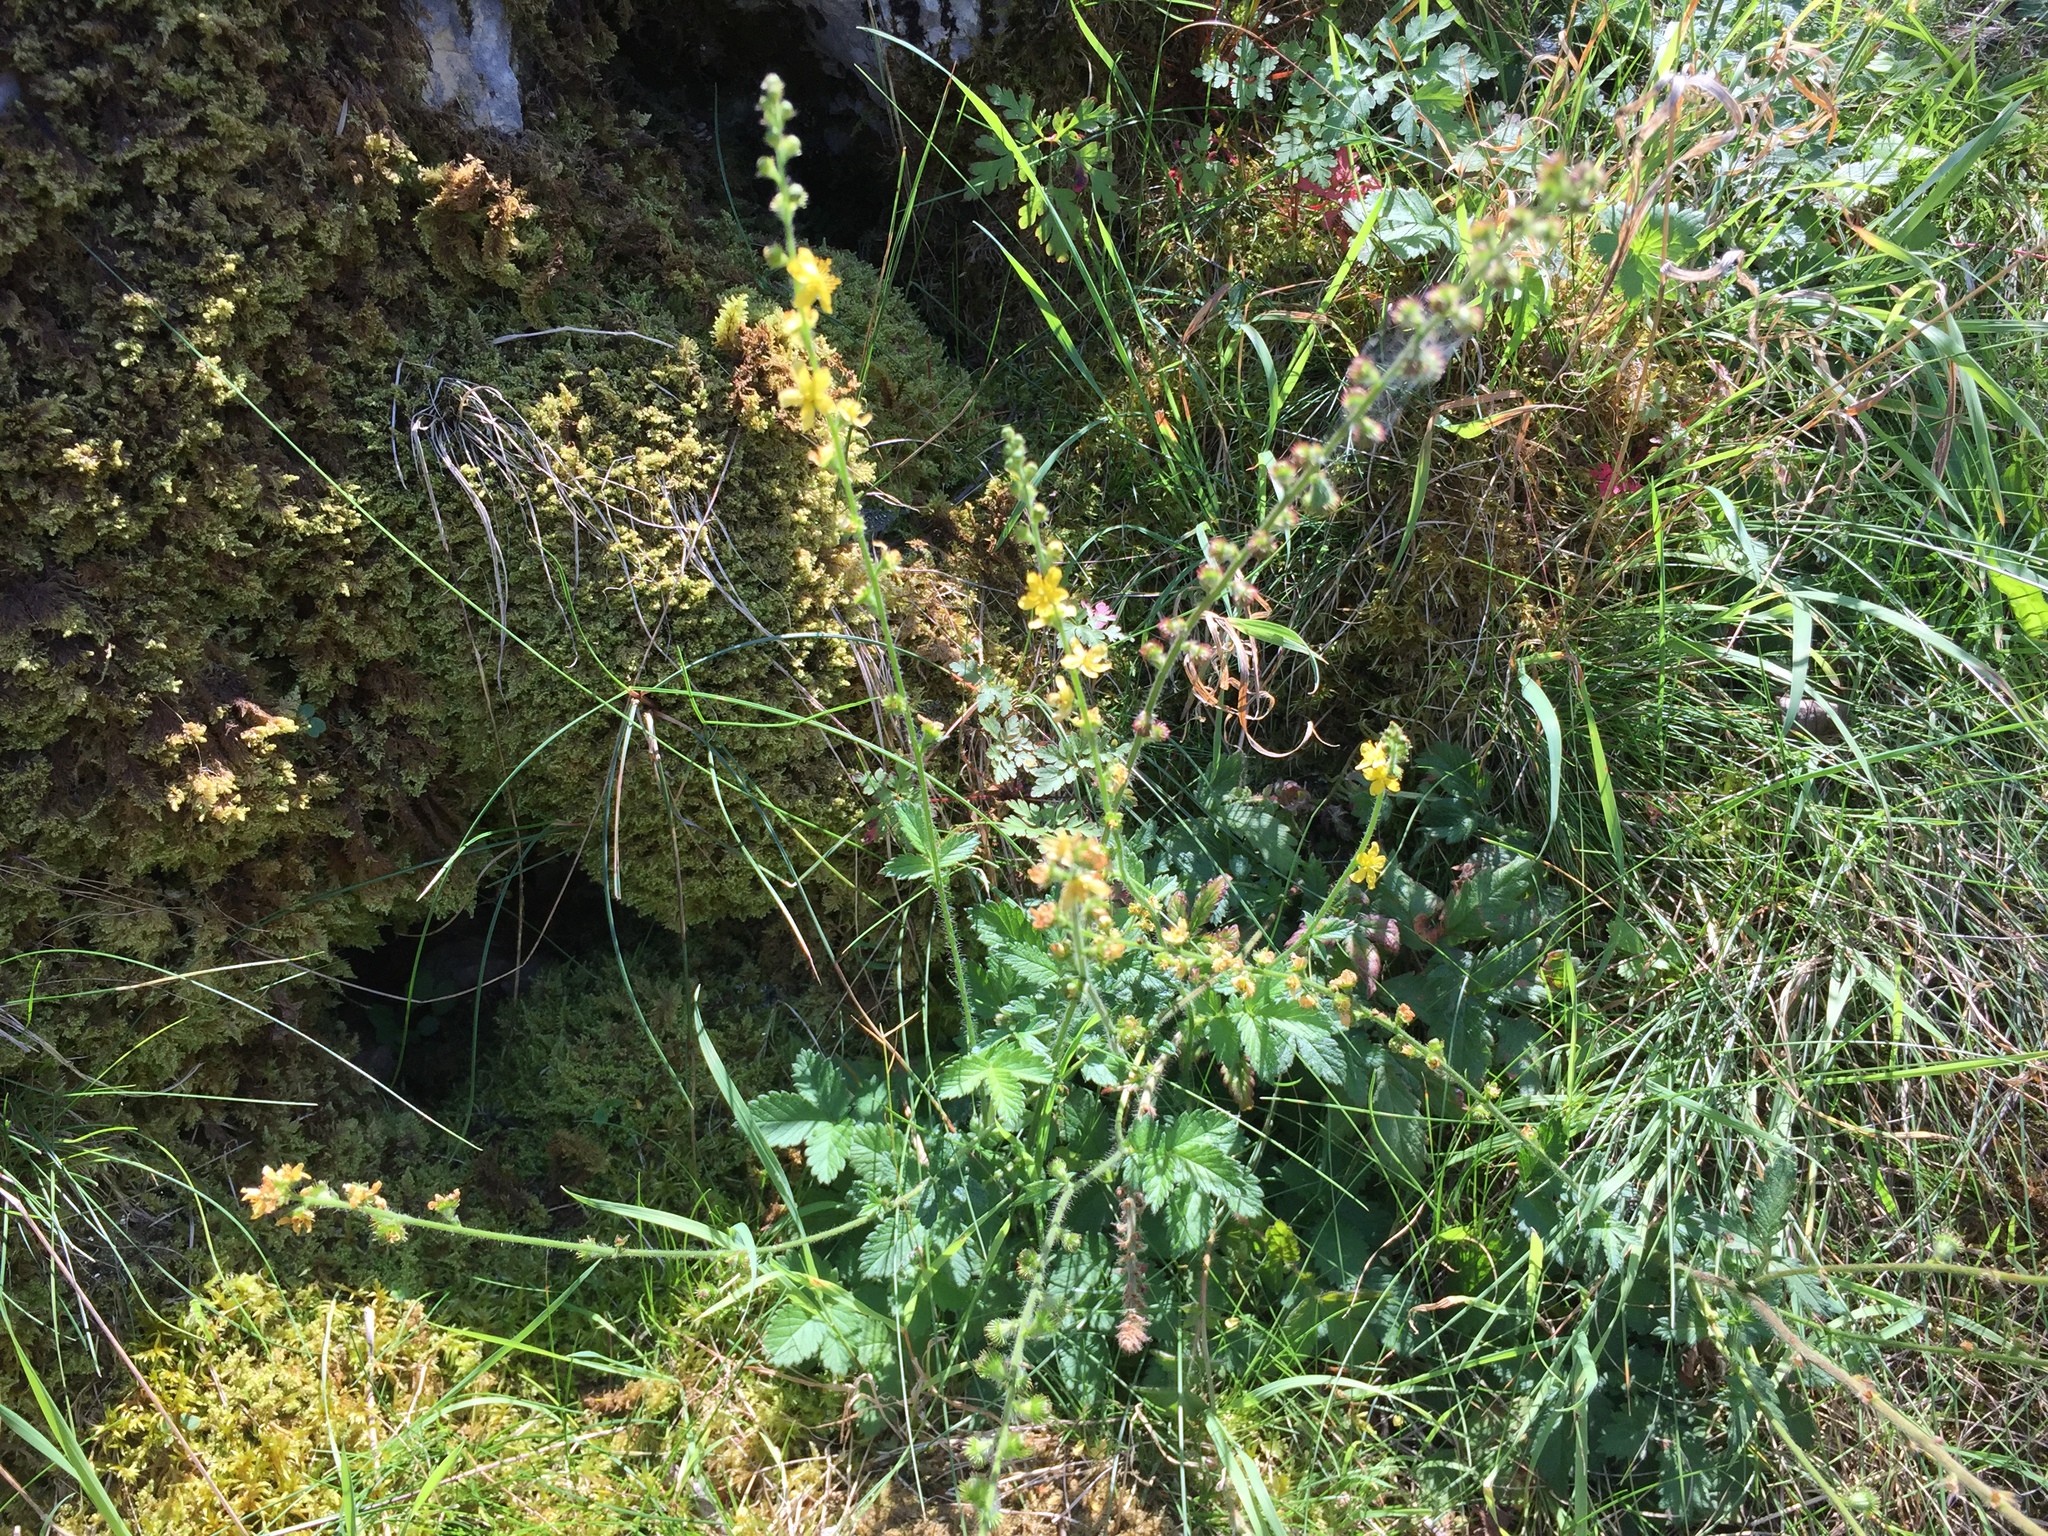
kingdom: Plantae
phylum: Tracheophyta
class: Magnoliopsida
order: Rosales
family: Rosaceae
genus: Agrimonia
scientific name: Agrimonia eupatoria
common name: Agrimony
